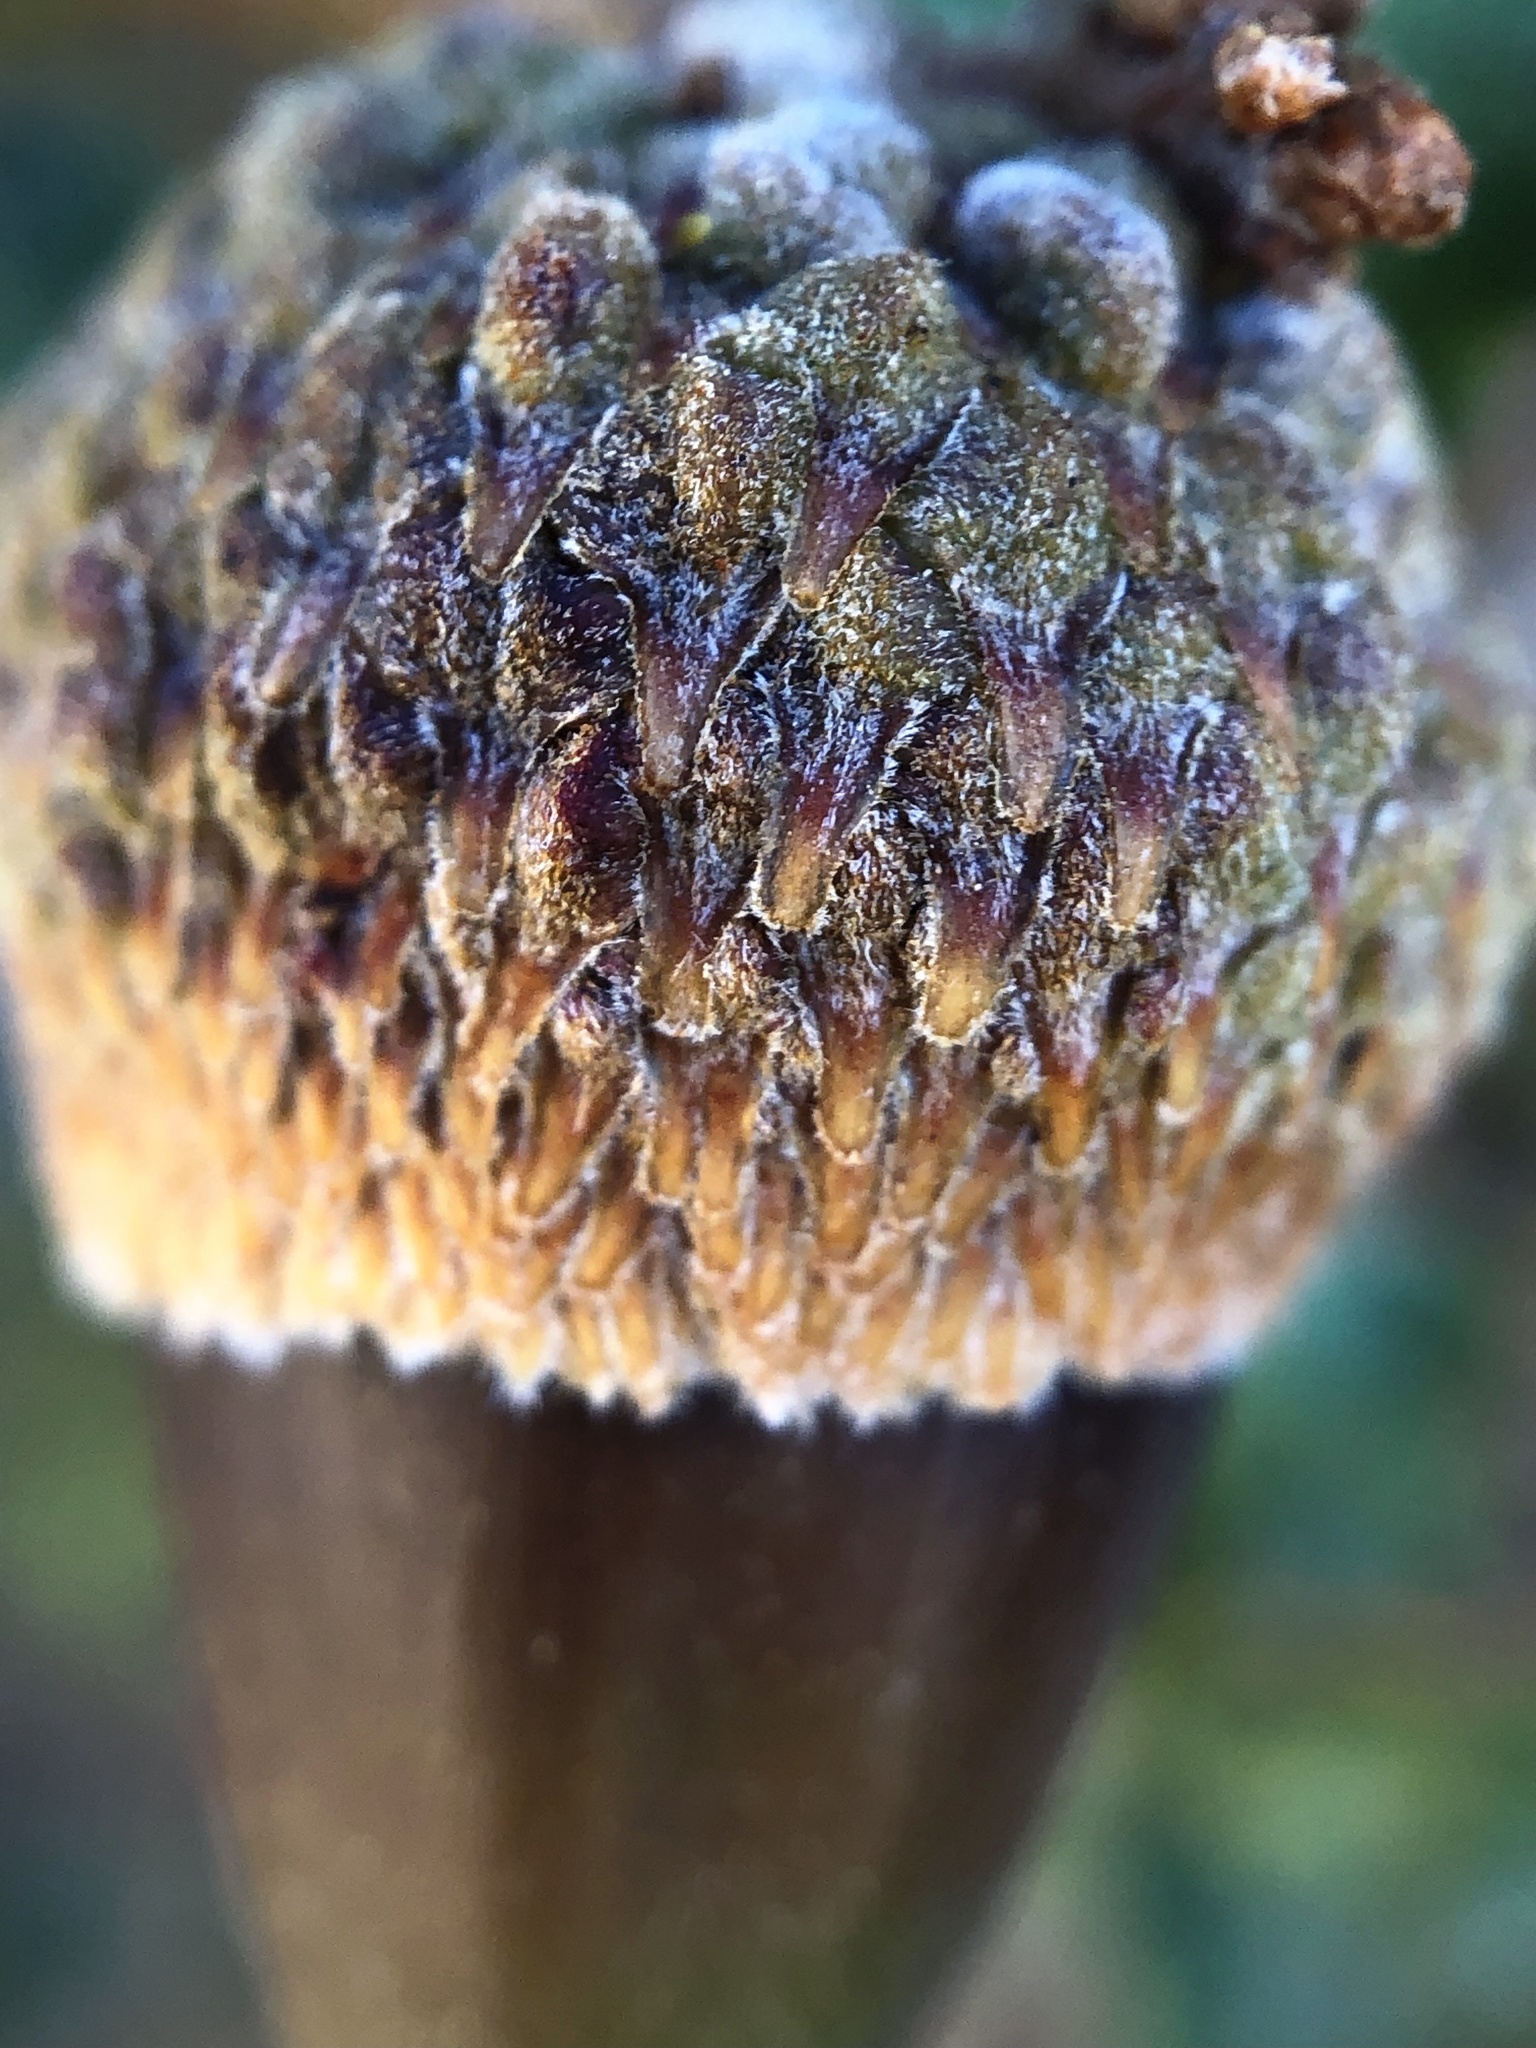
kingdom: Plantae
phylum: Tracheophyta
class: Magnoliopsida
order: Fagales
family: Fagaceae
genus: Quercus
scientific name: Quercus dumosa
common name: Coastal sage scrub oak
